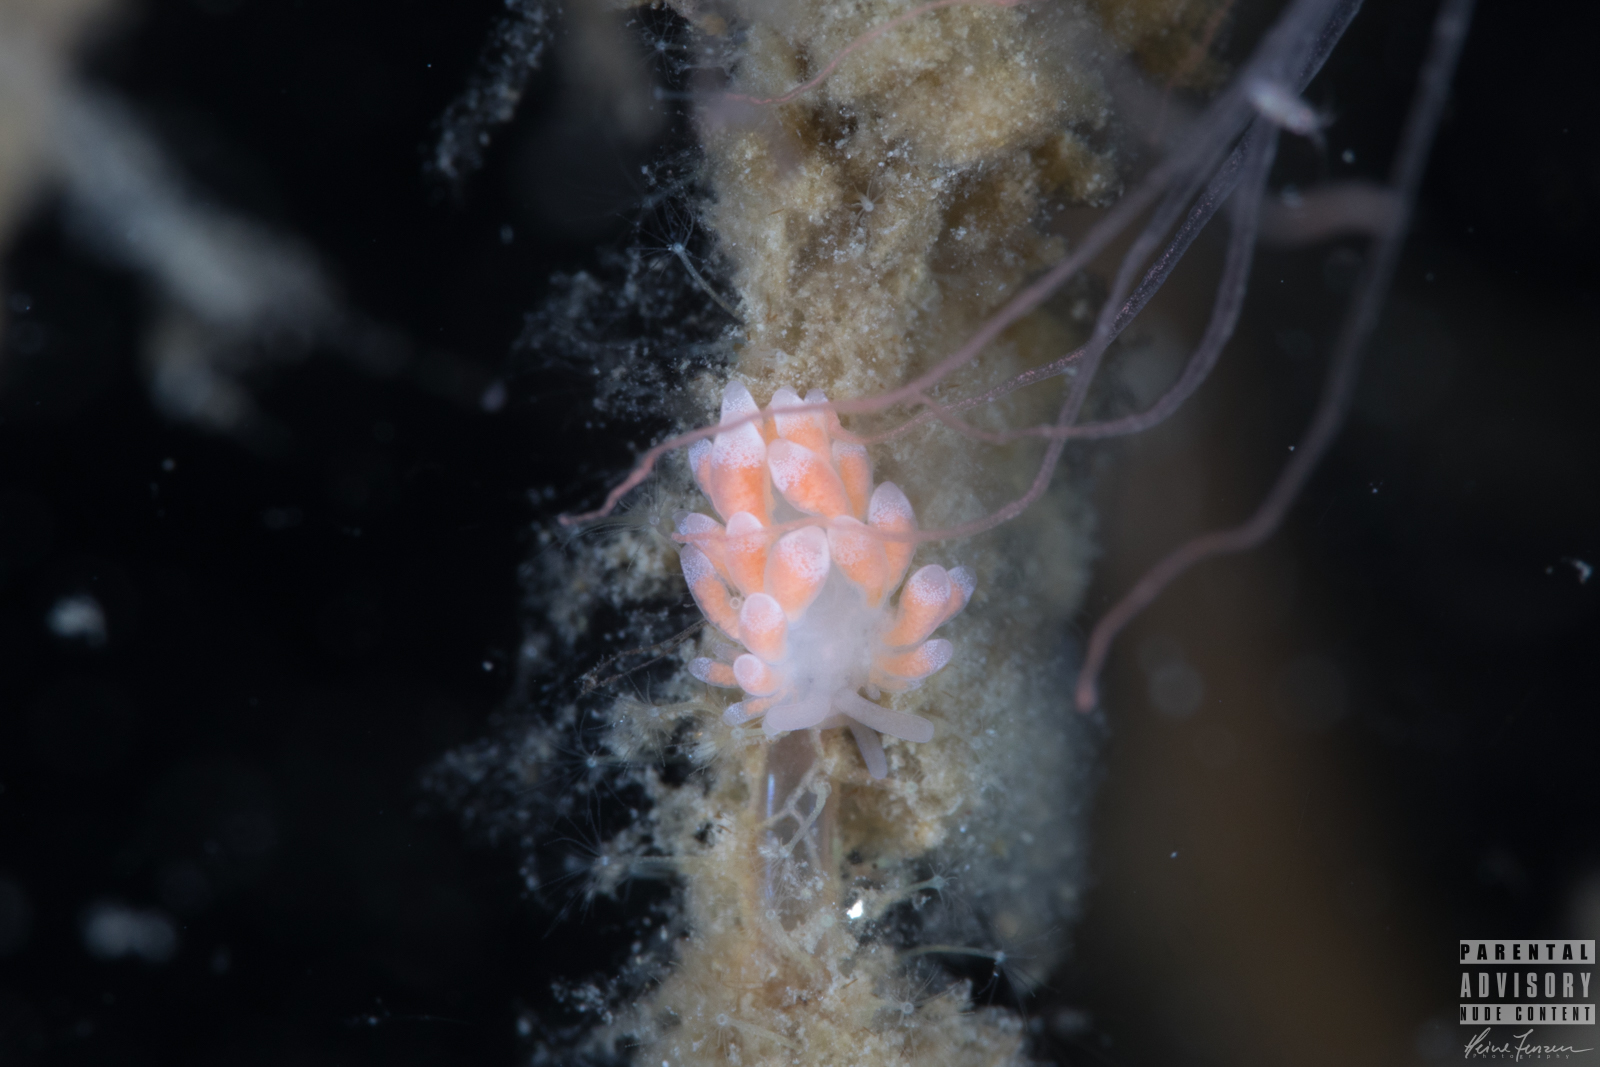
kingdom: Animalia
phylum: Mollusca
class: Gastropoda
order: Nudibranchia
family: Trinchesiidae
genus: Catriona
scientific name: Catriona aurantia
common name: Corange-tip cuthona
